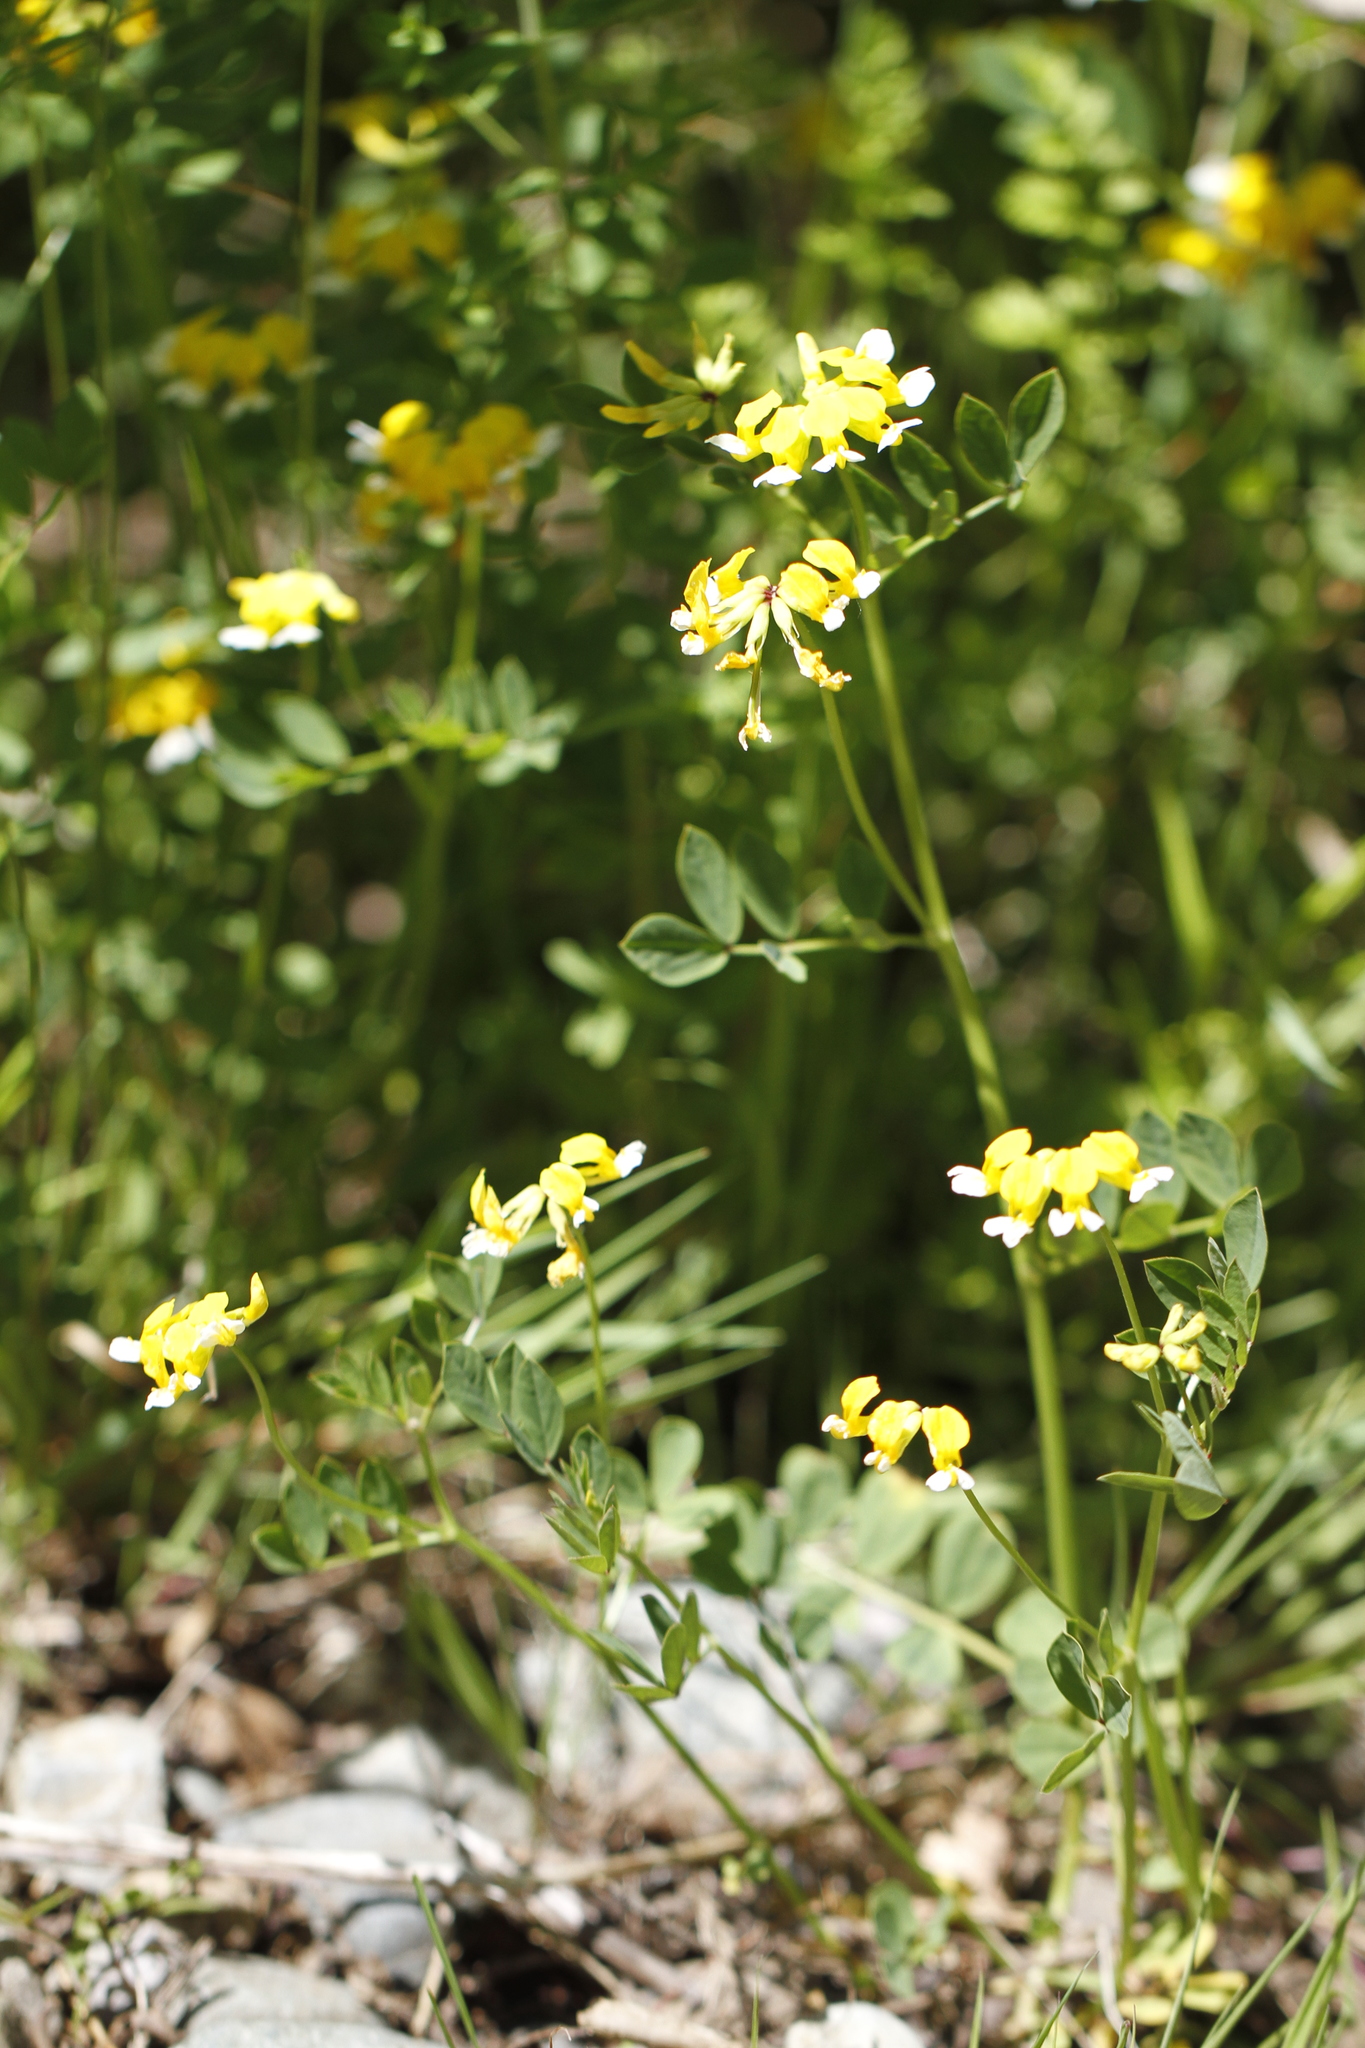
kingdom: Plantae
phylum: Tracheophyta
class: Magnoliopsida
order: Fabales
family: Fabaceae
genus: Hosackia
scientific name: Hosackia pinnata
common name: Bog bird's-foot trefoil
